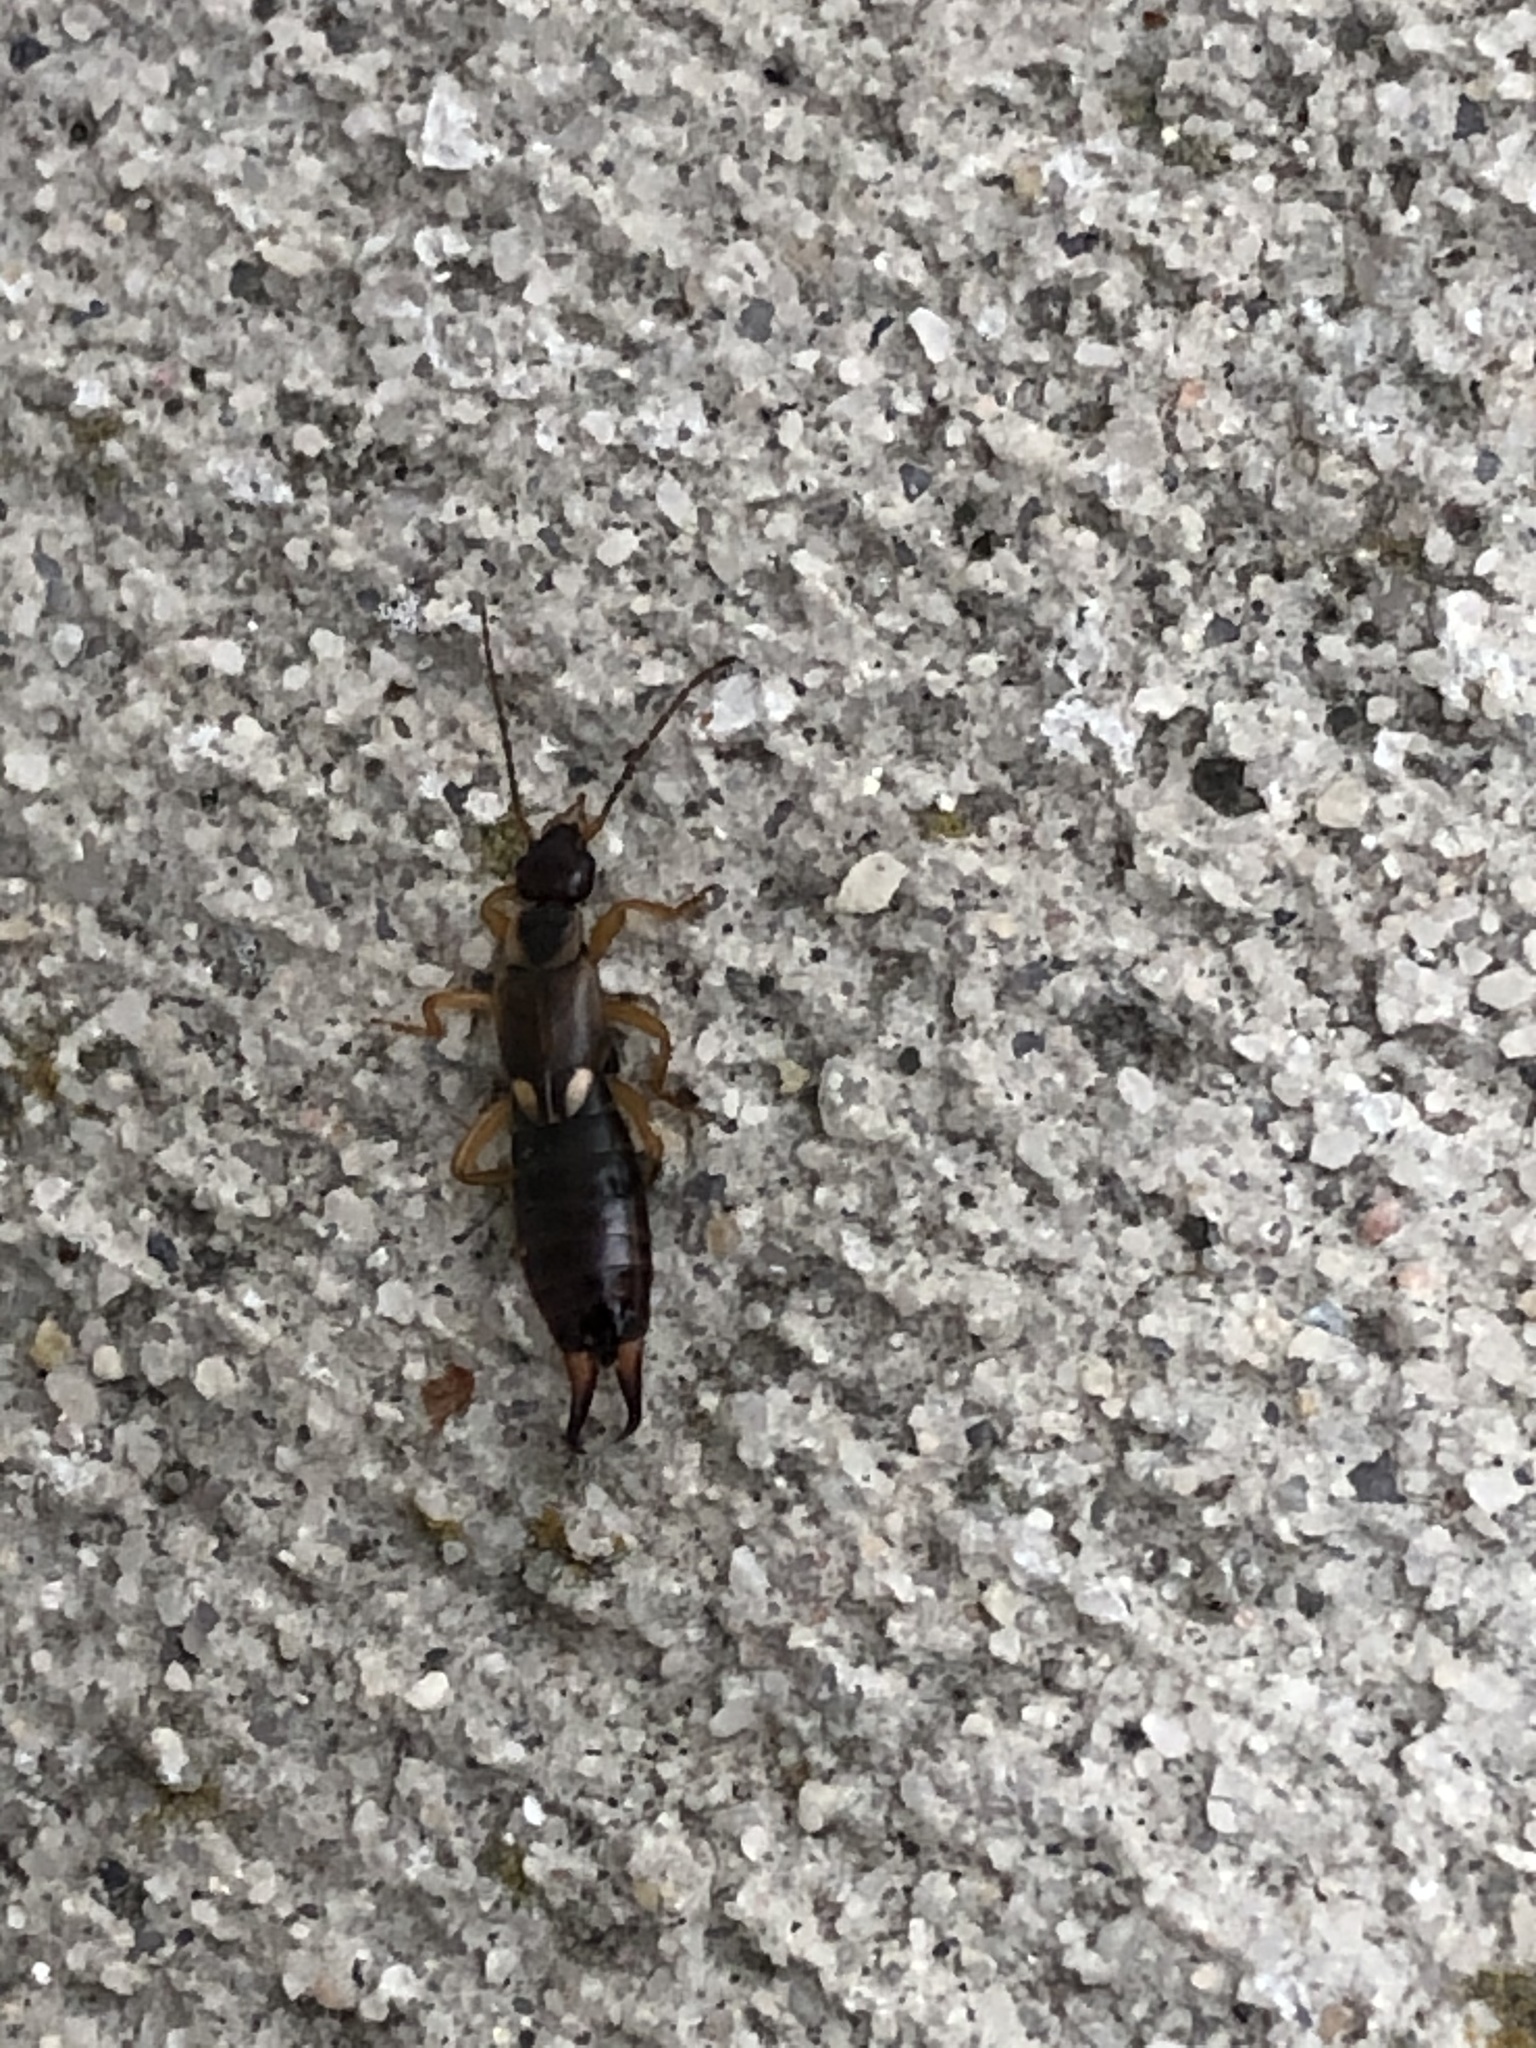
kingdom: Animalia
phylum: Arthropoda
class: Insecta
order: Dermaptera
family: Forficulidae
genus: Forficula
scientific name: Forficula
